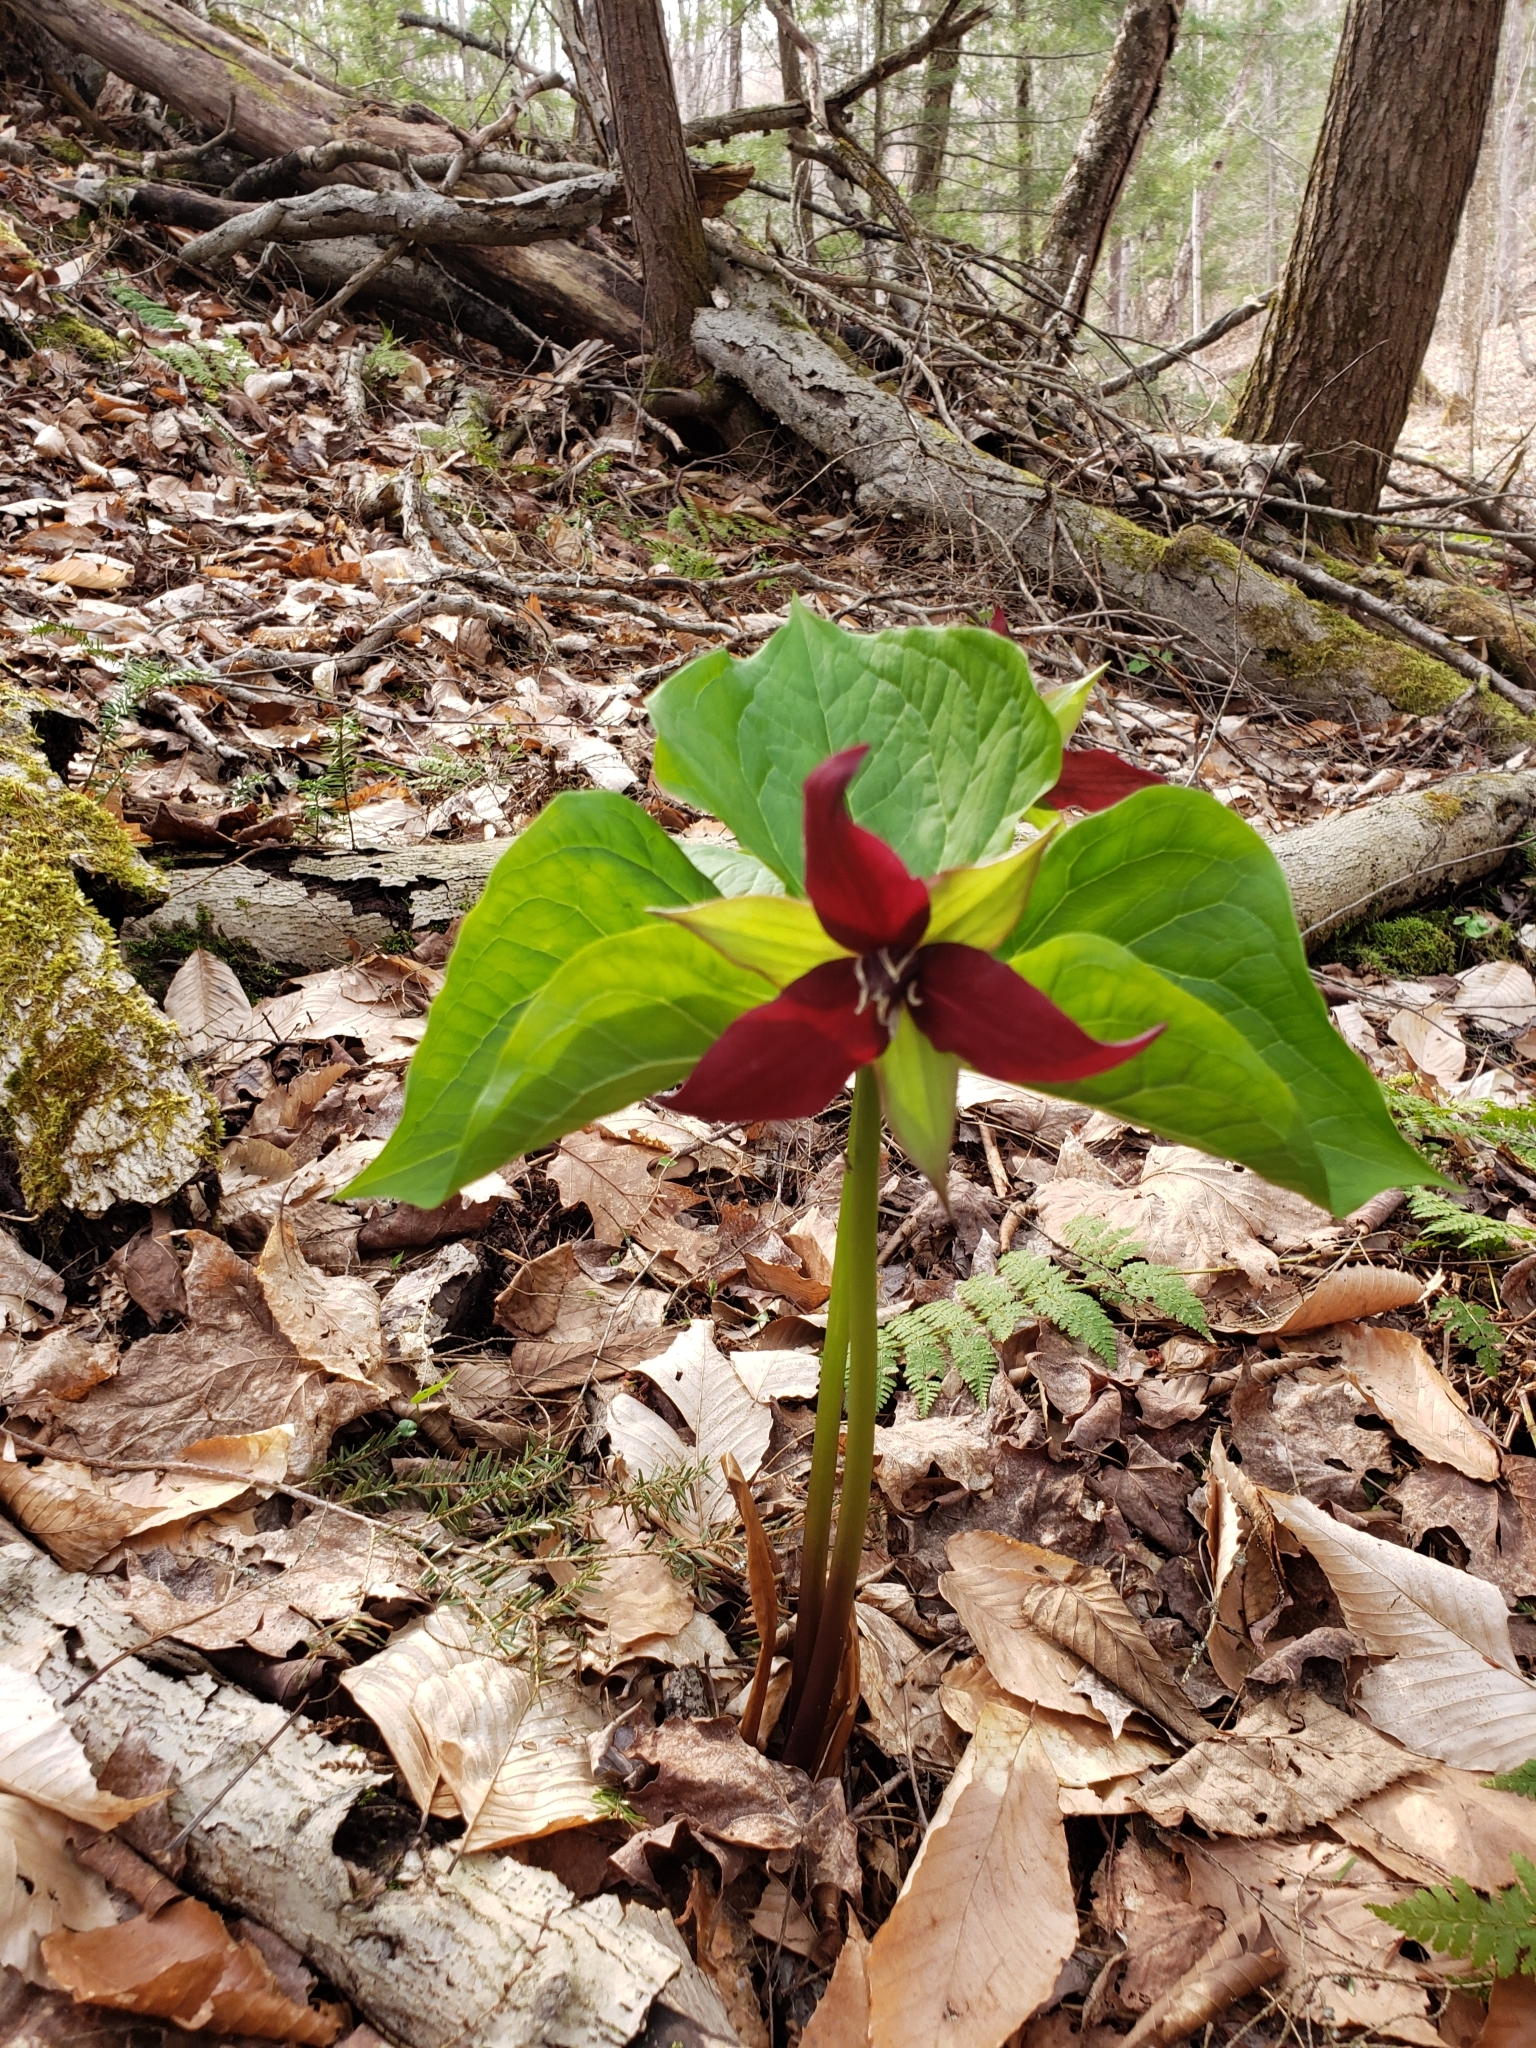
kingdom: Plantae
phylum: Tracheophyta
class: Liliopsida
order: Liliales
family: Melanthiaceae
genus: Trillium
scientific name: Trillium erectum
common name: Purple trillium
